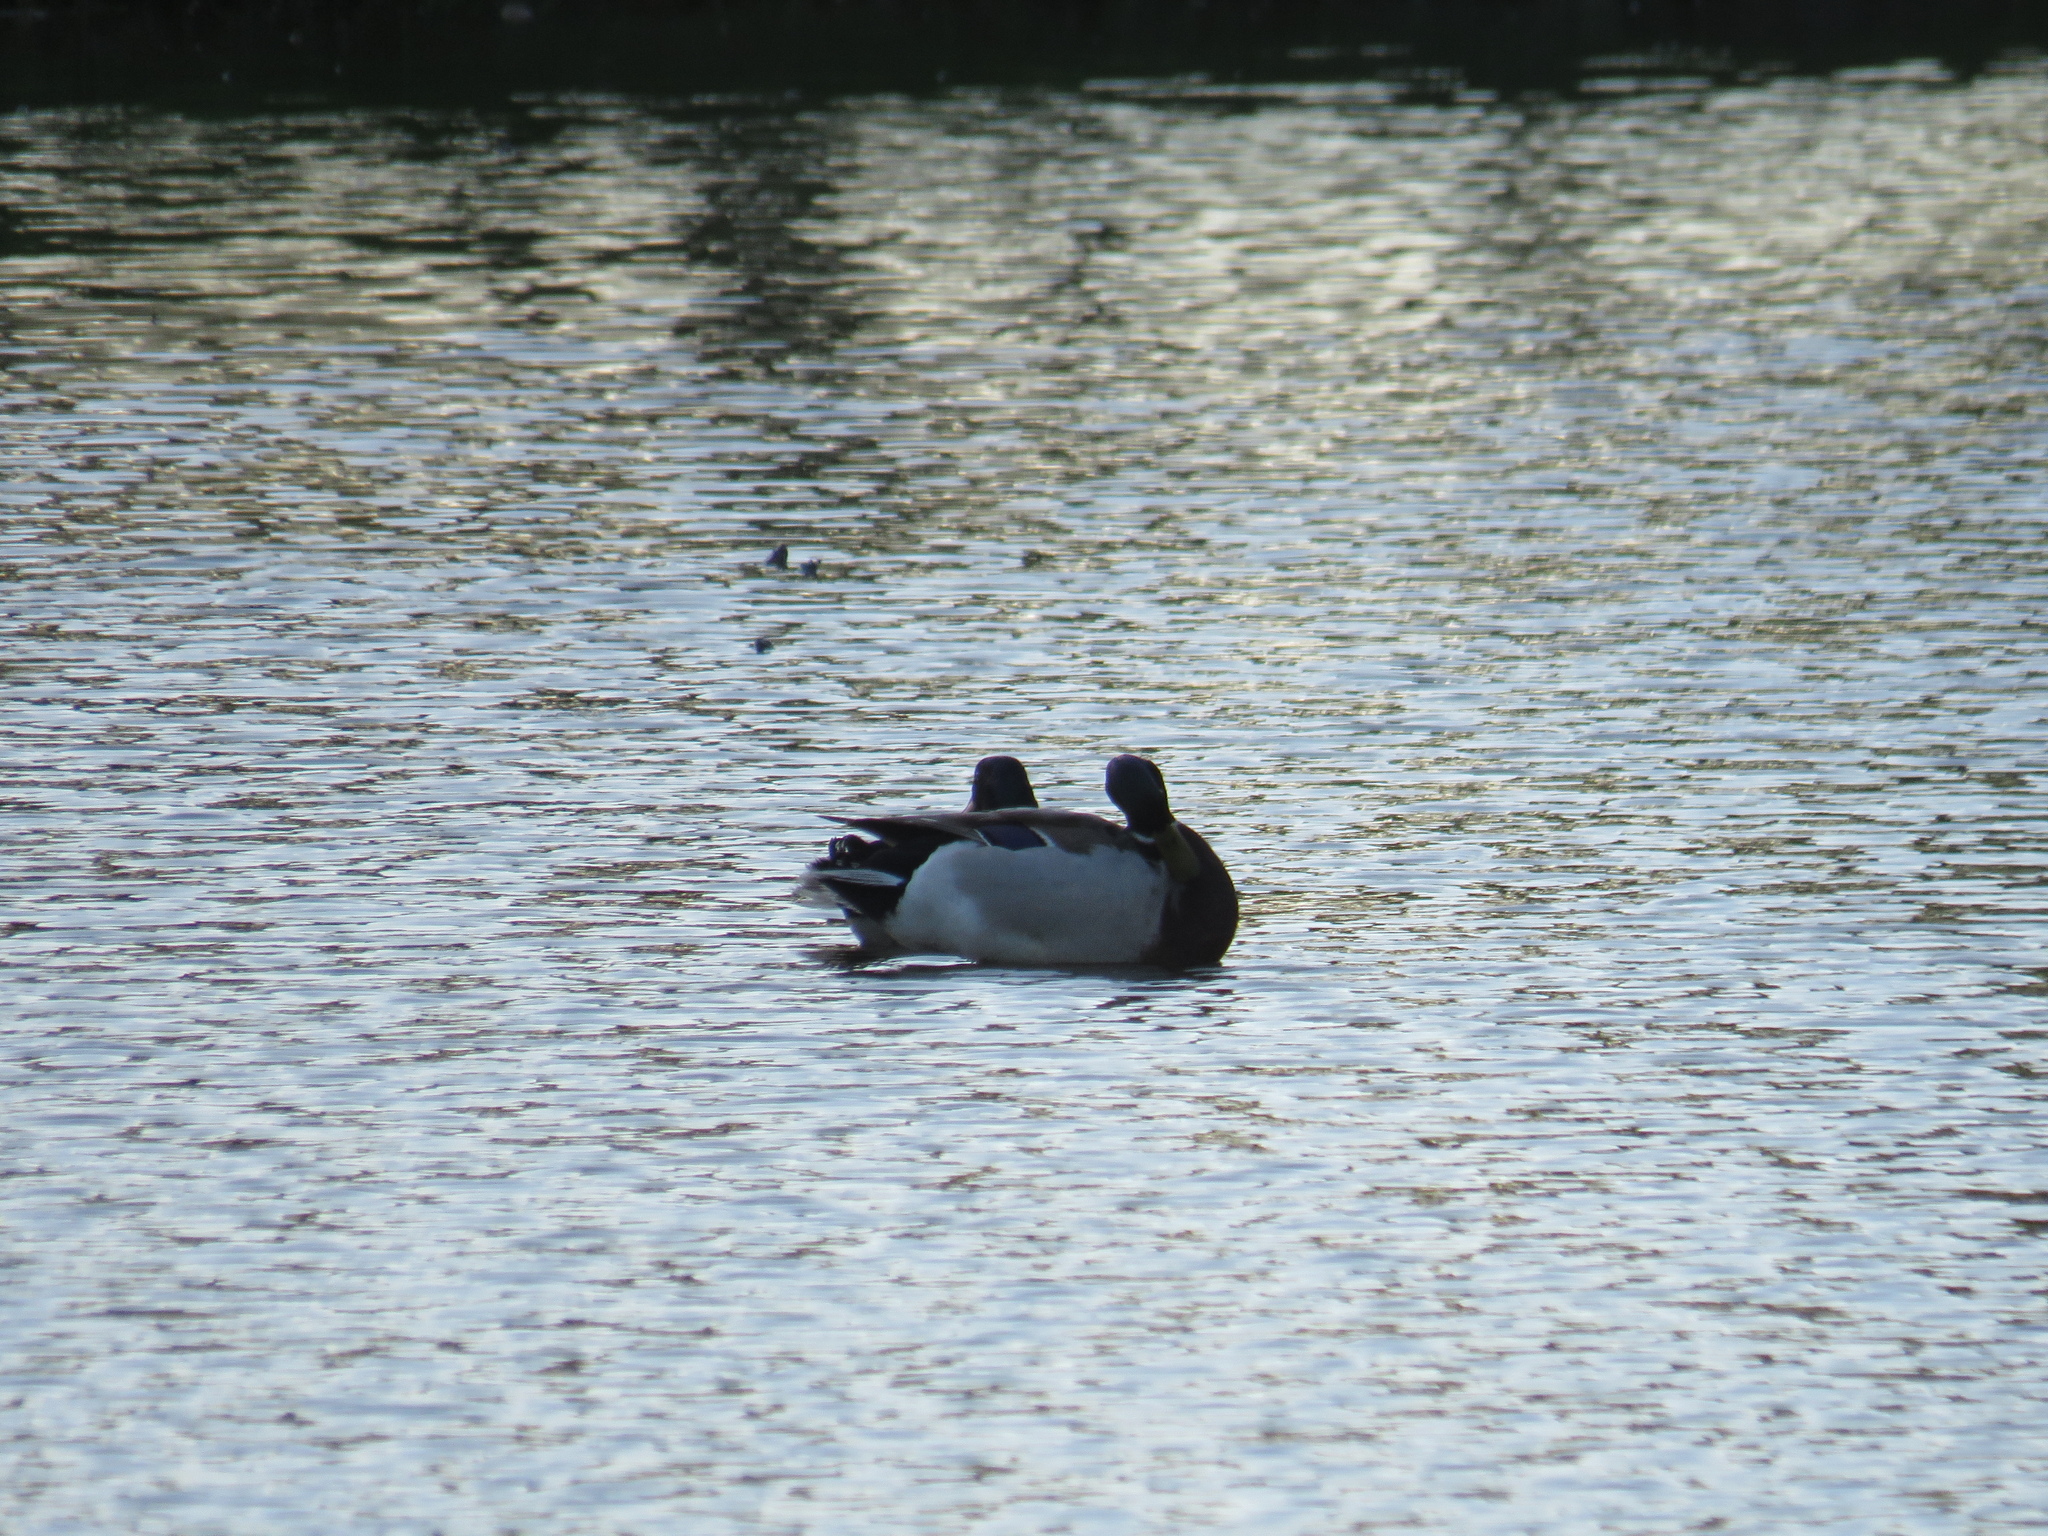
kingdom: Animalia
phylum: Chordata
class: Aves
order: Anseriformes
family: Anatidae
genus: Anas
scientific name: Anas platyrhynchos
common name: Mallard
